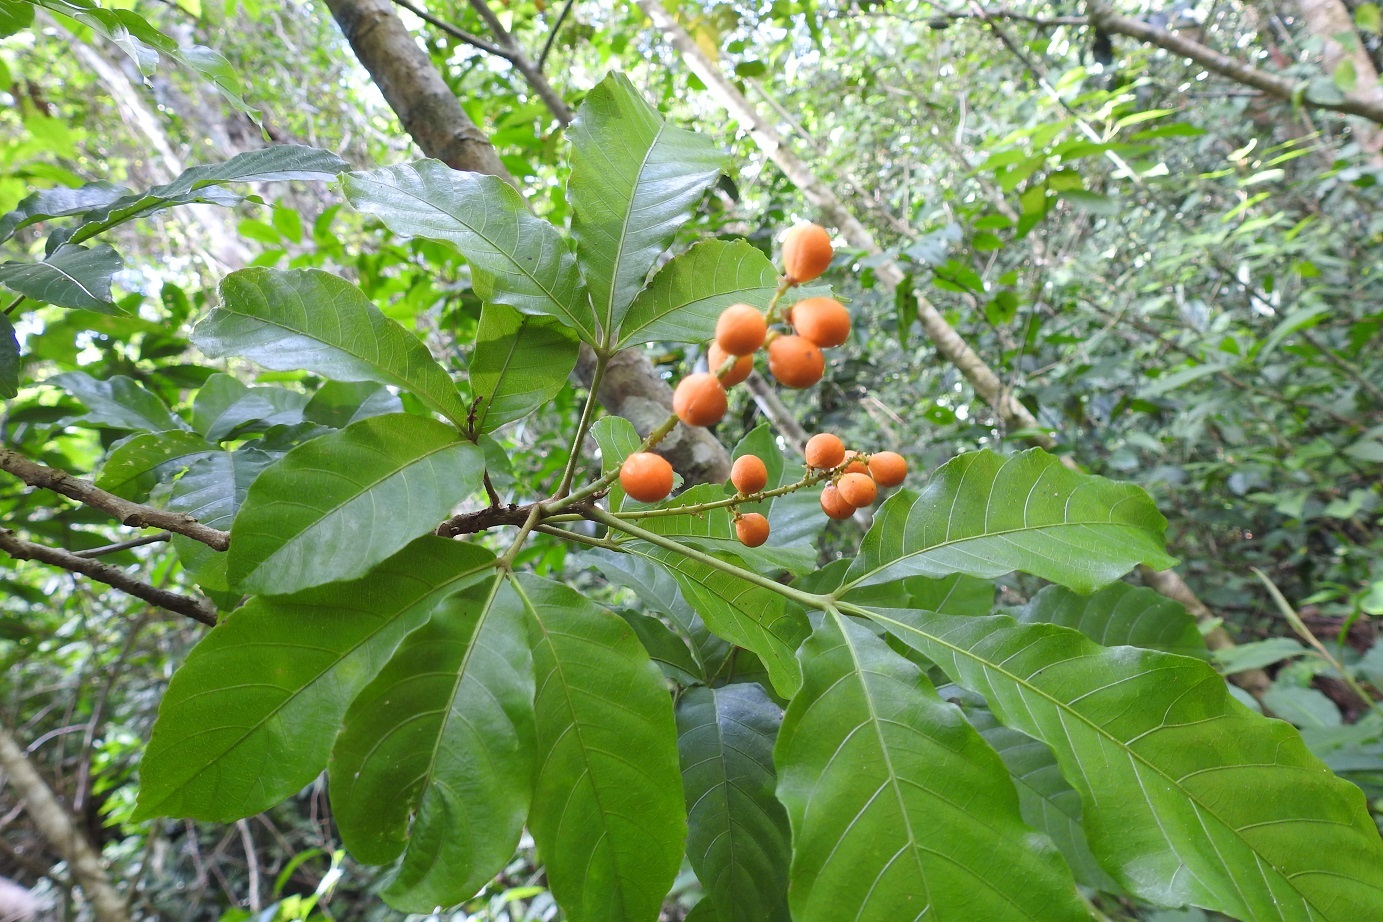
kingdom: Plantae
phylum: Tracheophyta
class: Magnoliopsida
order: Sapindales
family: Meliaceae
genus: Trichilia
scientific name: Trichilia trifolia
